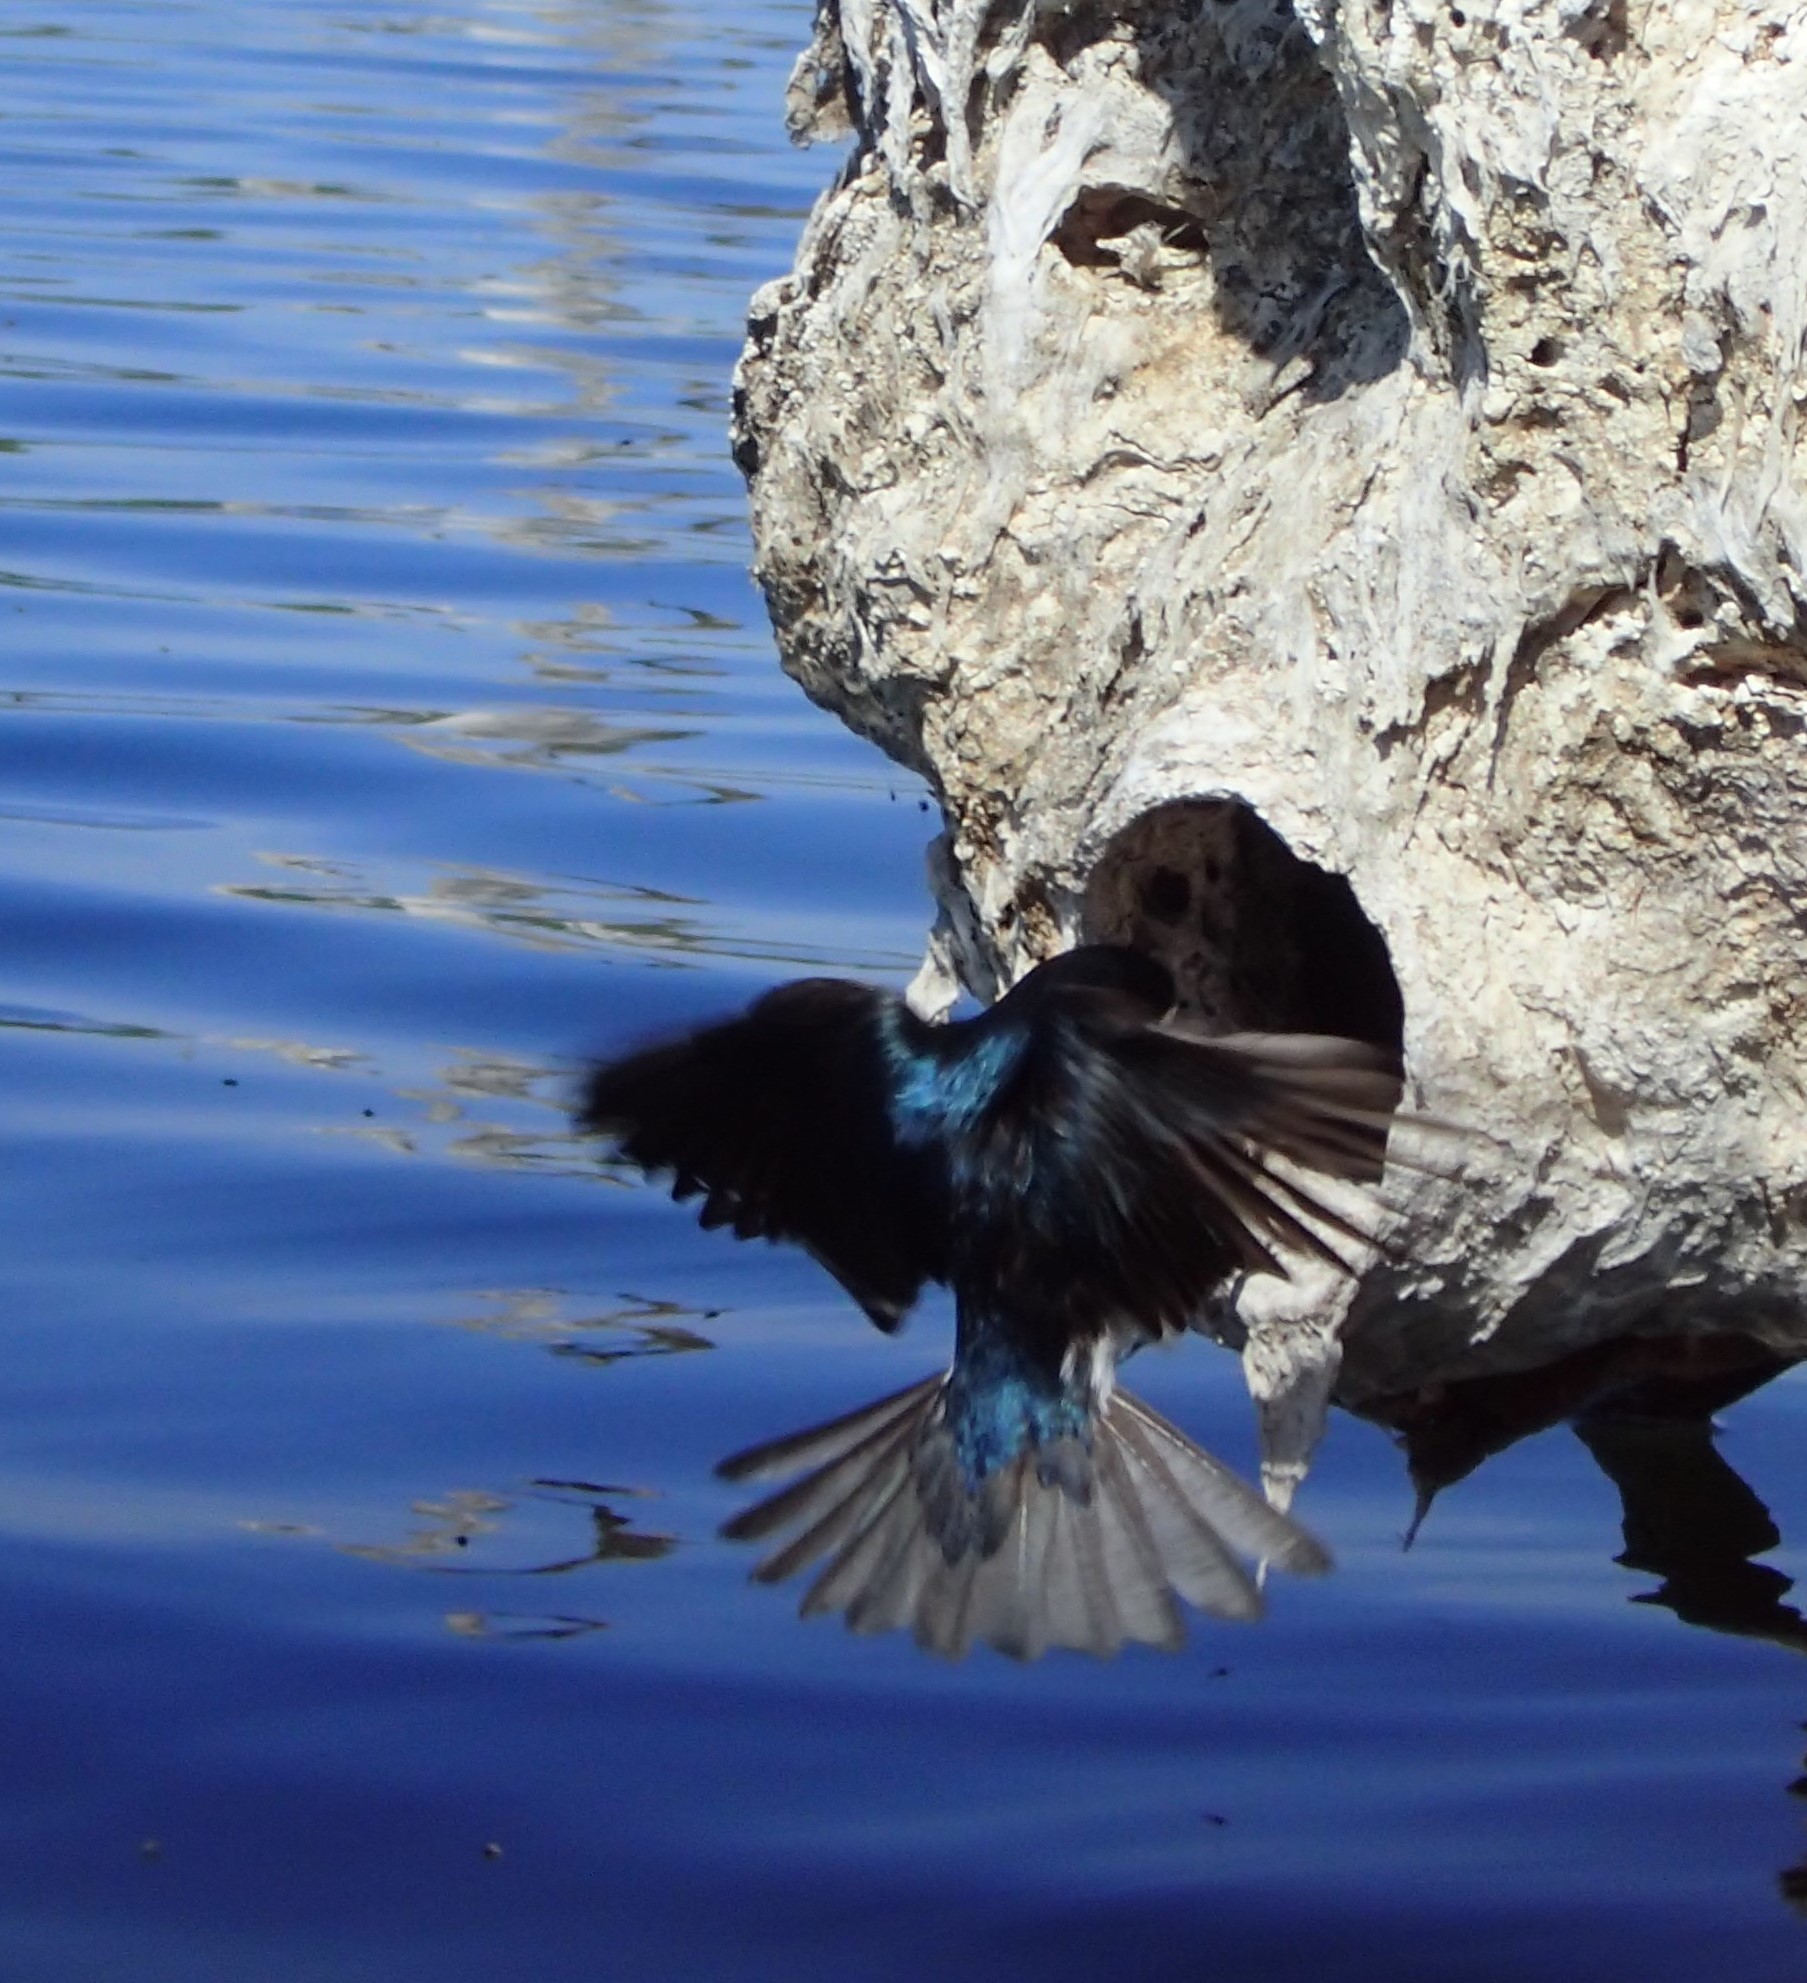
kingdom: Animalia
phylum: Chordata
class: Aves
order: Passeriformes
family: Hirundinidae
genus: Tachycineta
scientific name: Tachycineta bicolor
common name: Tree swallow
